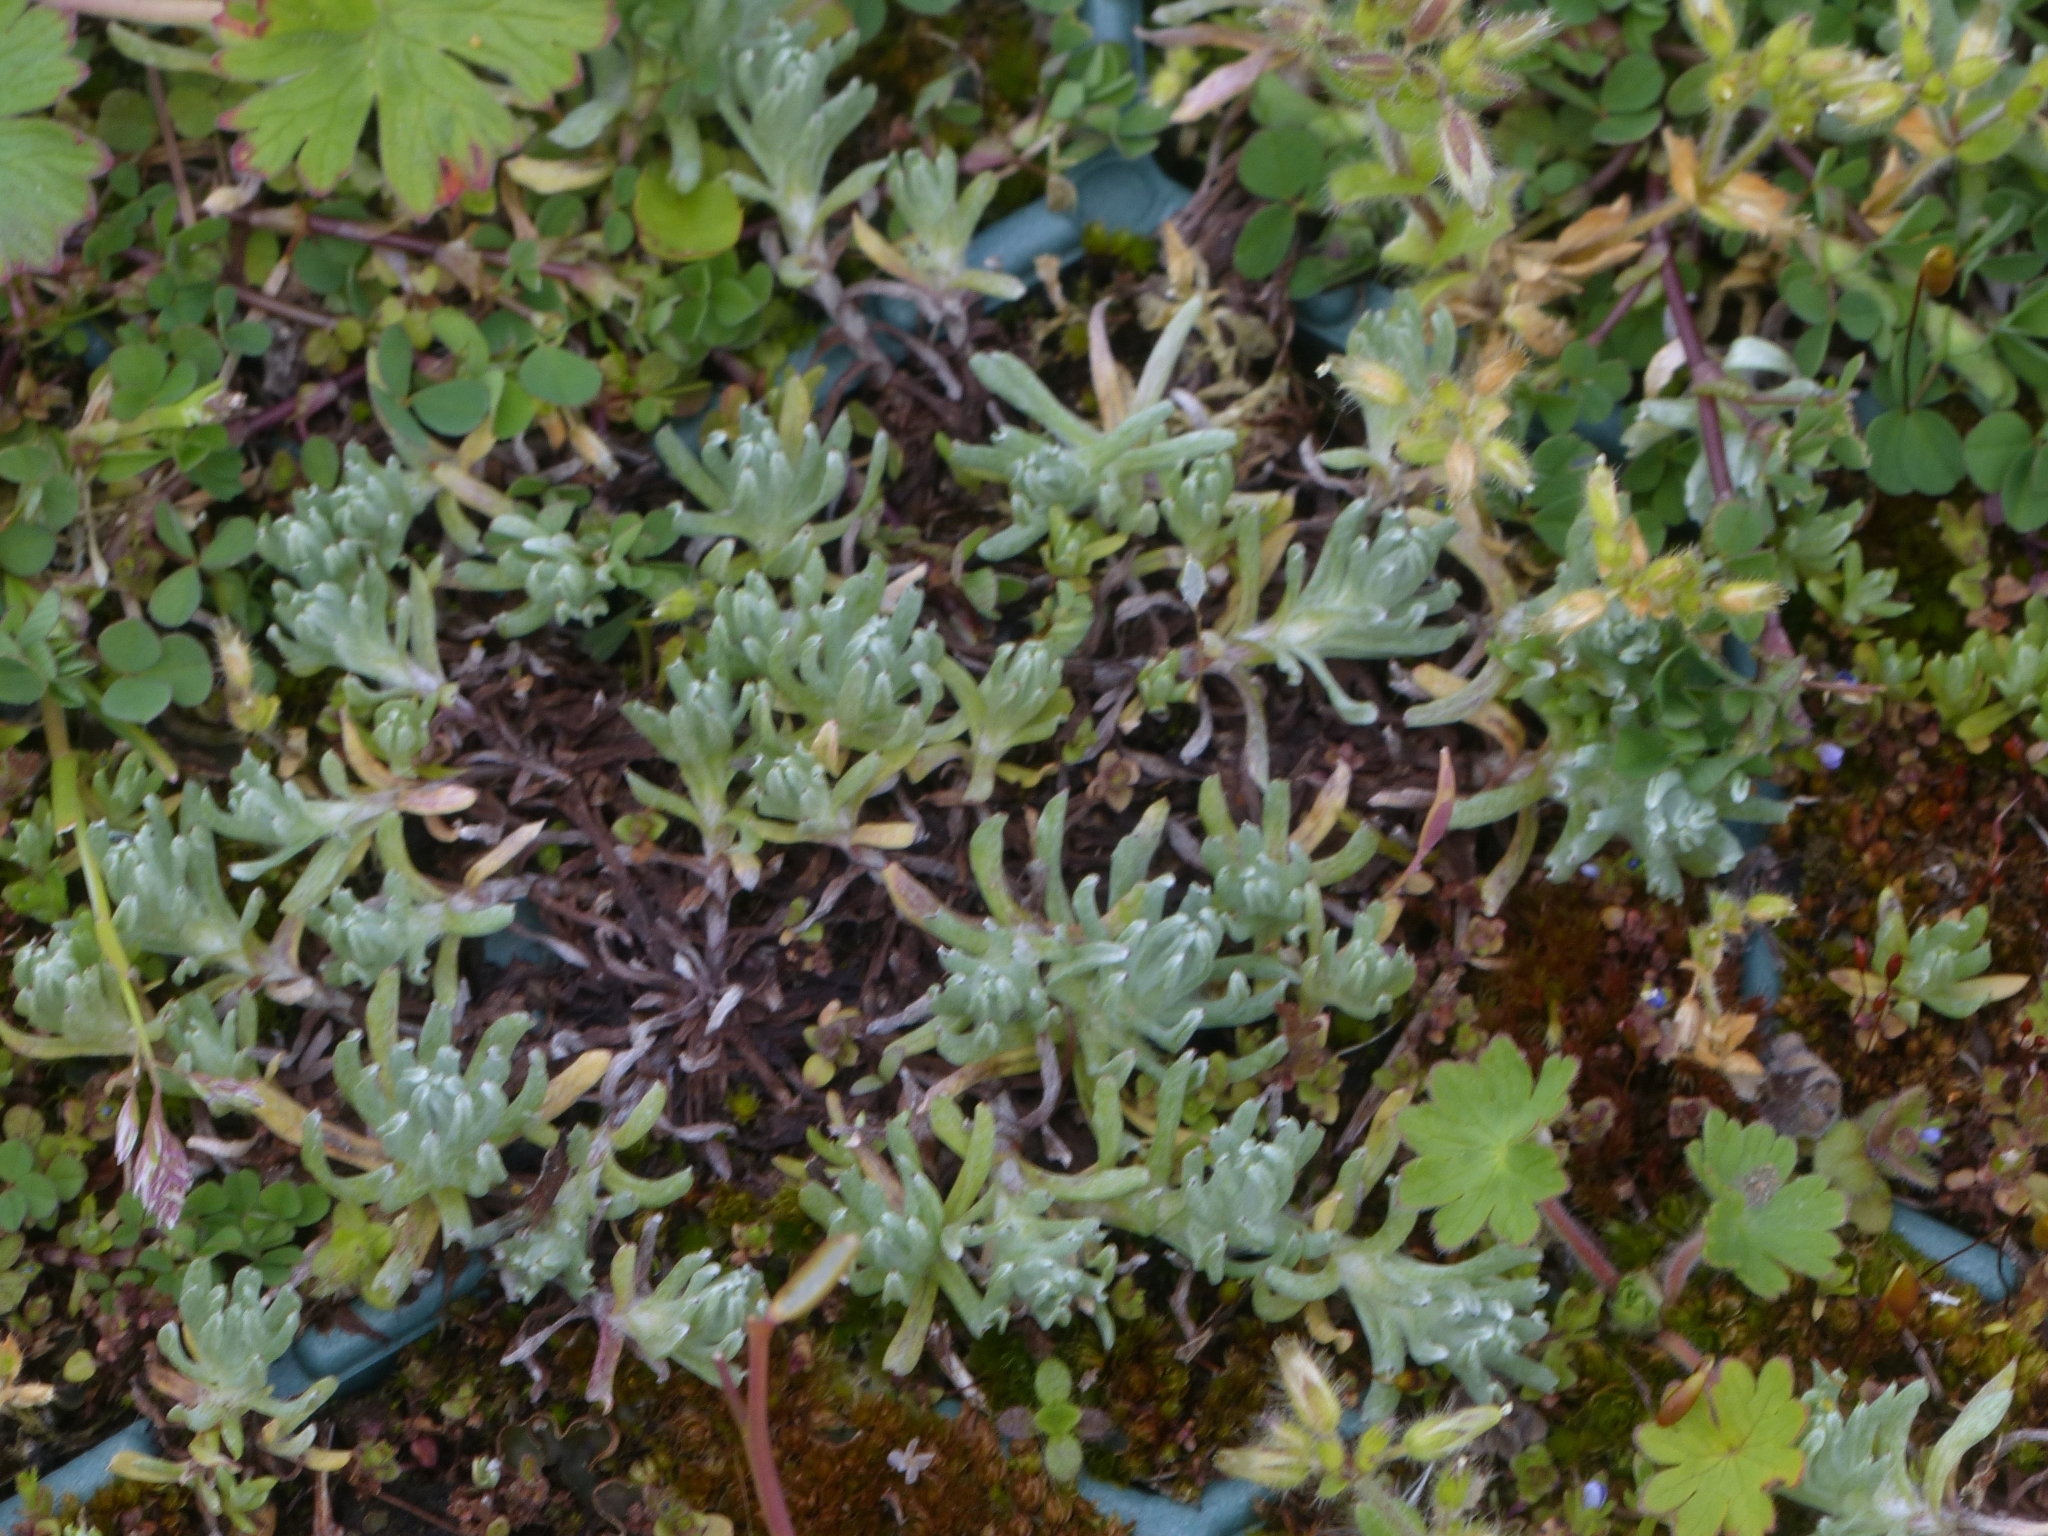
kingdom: Plantae
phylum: Tracheophyta
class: Magnoliopsida
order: Asterales
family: Asteraceae
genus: Filago
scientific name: Filago germanica
